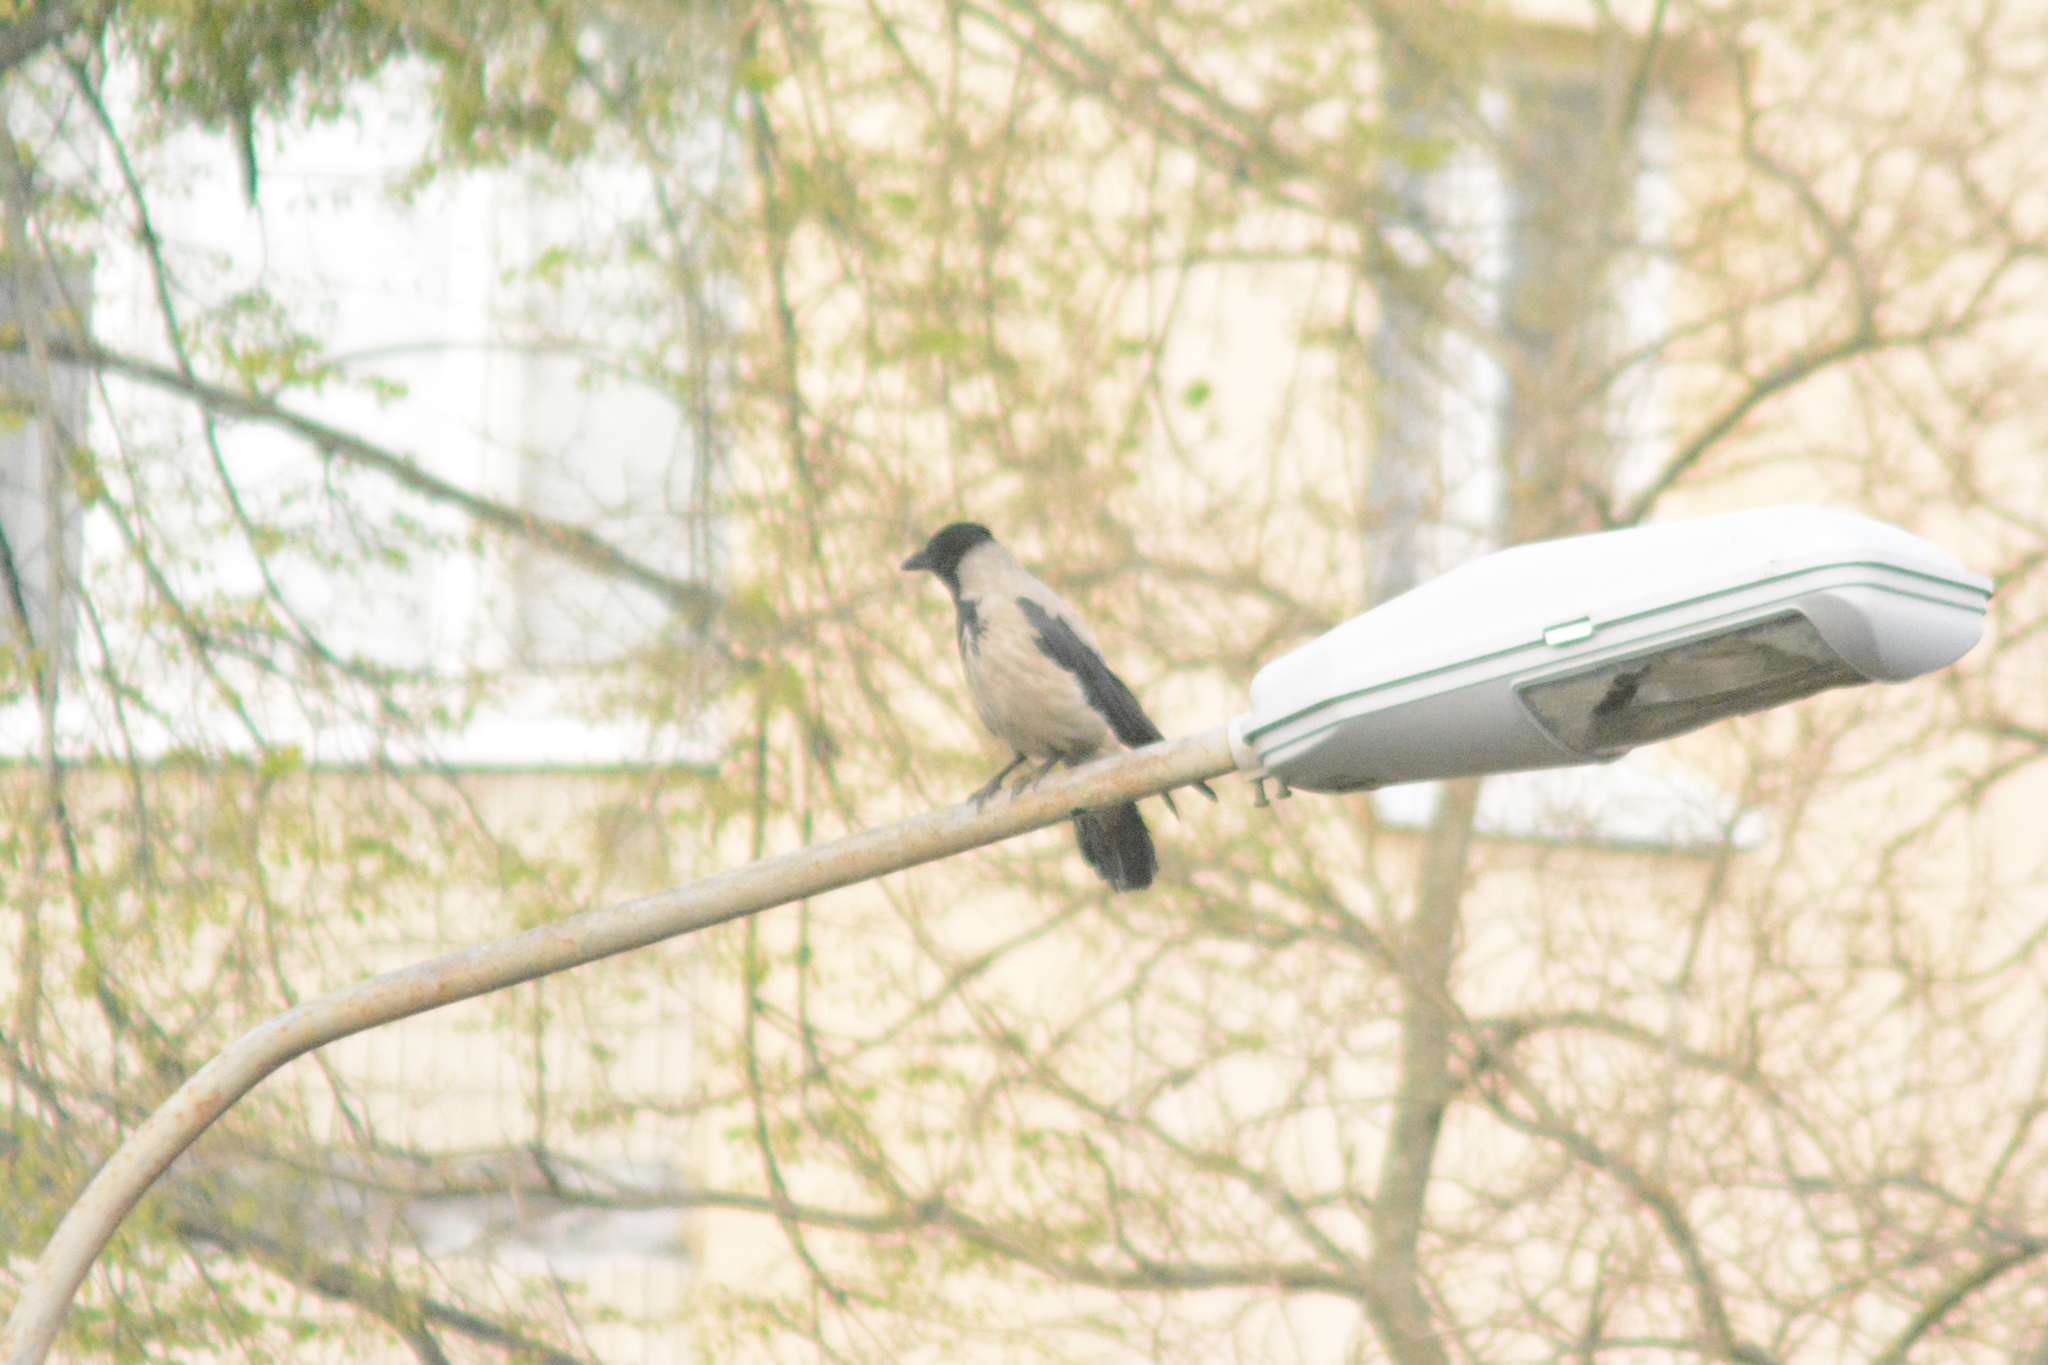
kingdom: Animalia
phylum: Chordata
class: Aves
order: Passeriformes
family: Corvidae
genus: Corvus
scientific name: Corvus cornix
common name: Hooded crow
